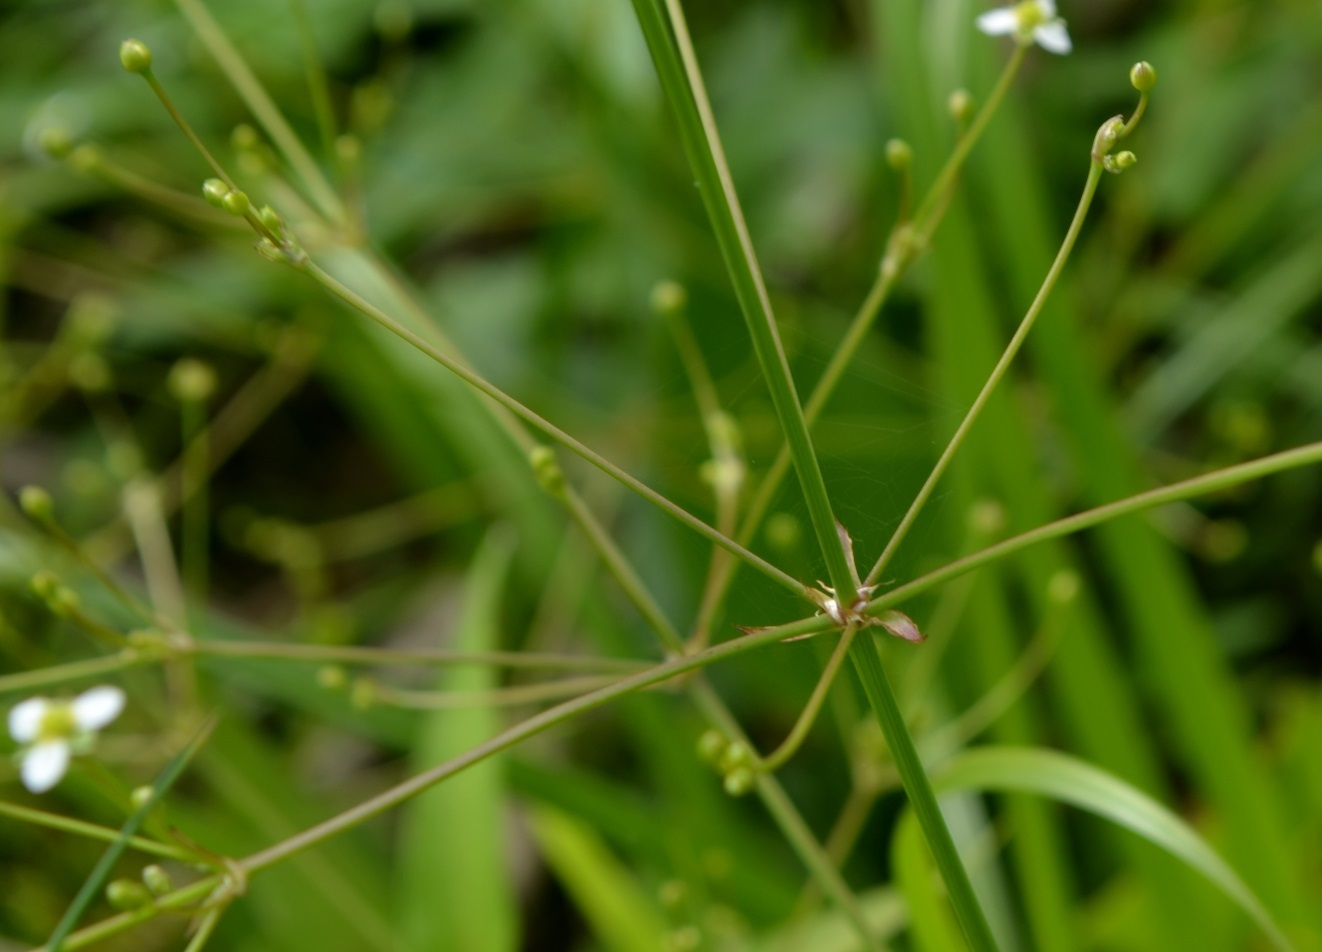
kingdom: Plantae
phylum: Tracheophyta
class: Liliopsida
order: Alismatales
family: Alismataceae
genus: Alisma
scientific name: Alisma subcordatum
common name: Southern water-plantain
